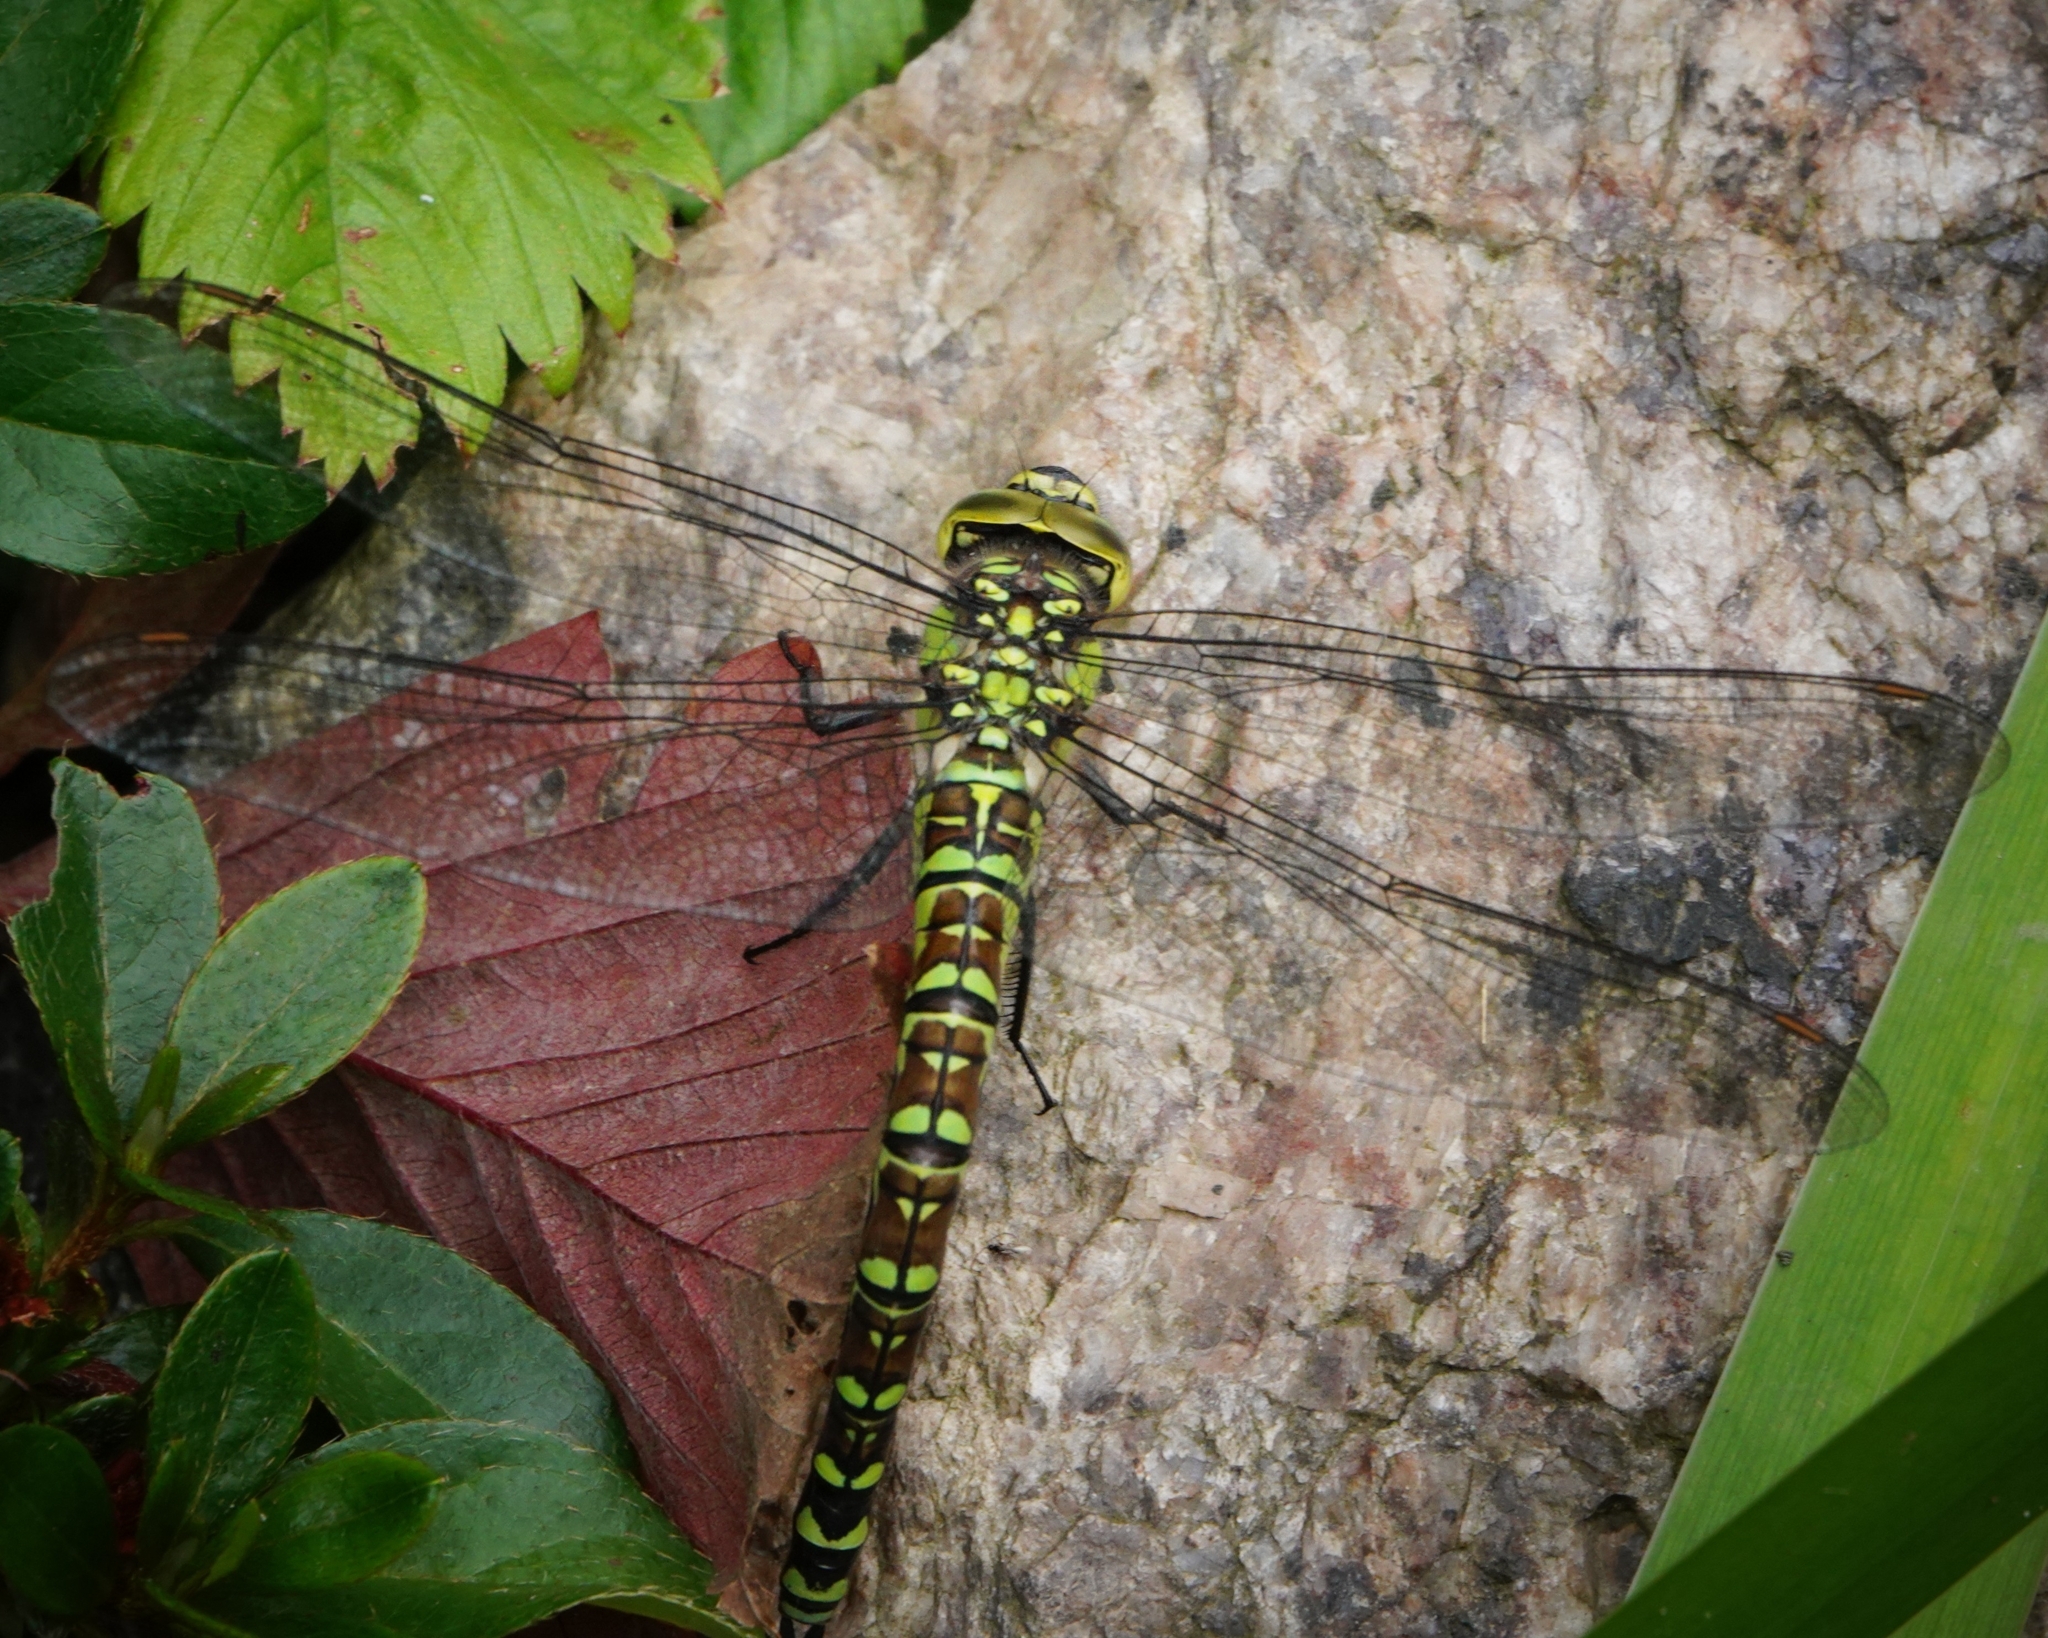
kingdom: Animalia
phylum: Arthropoda
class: Insecta
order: Odonata
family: Aeshnidae
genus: Aeshna
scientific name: Aeshna cyanea
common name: Southern hawker
